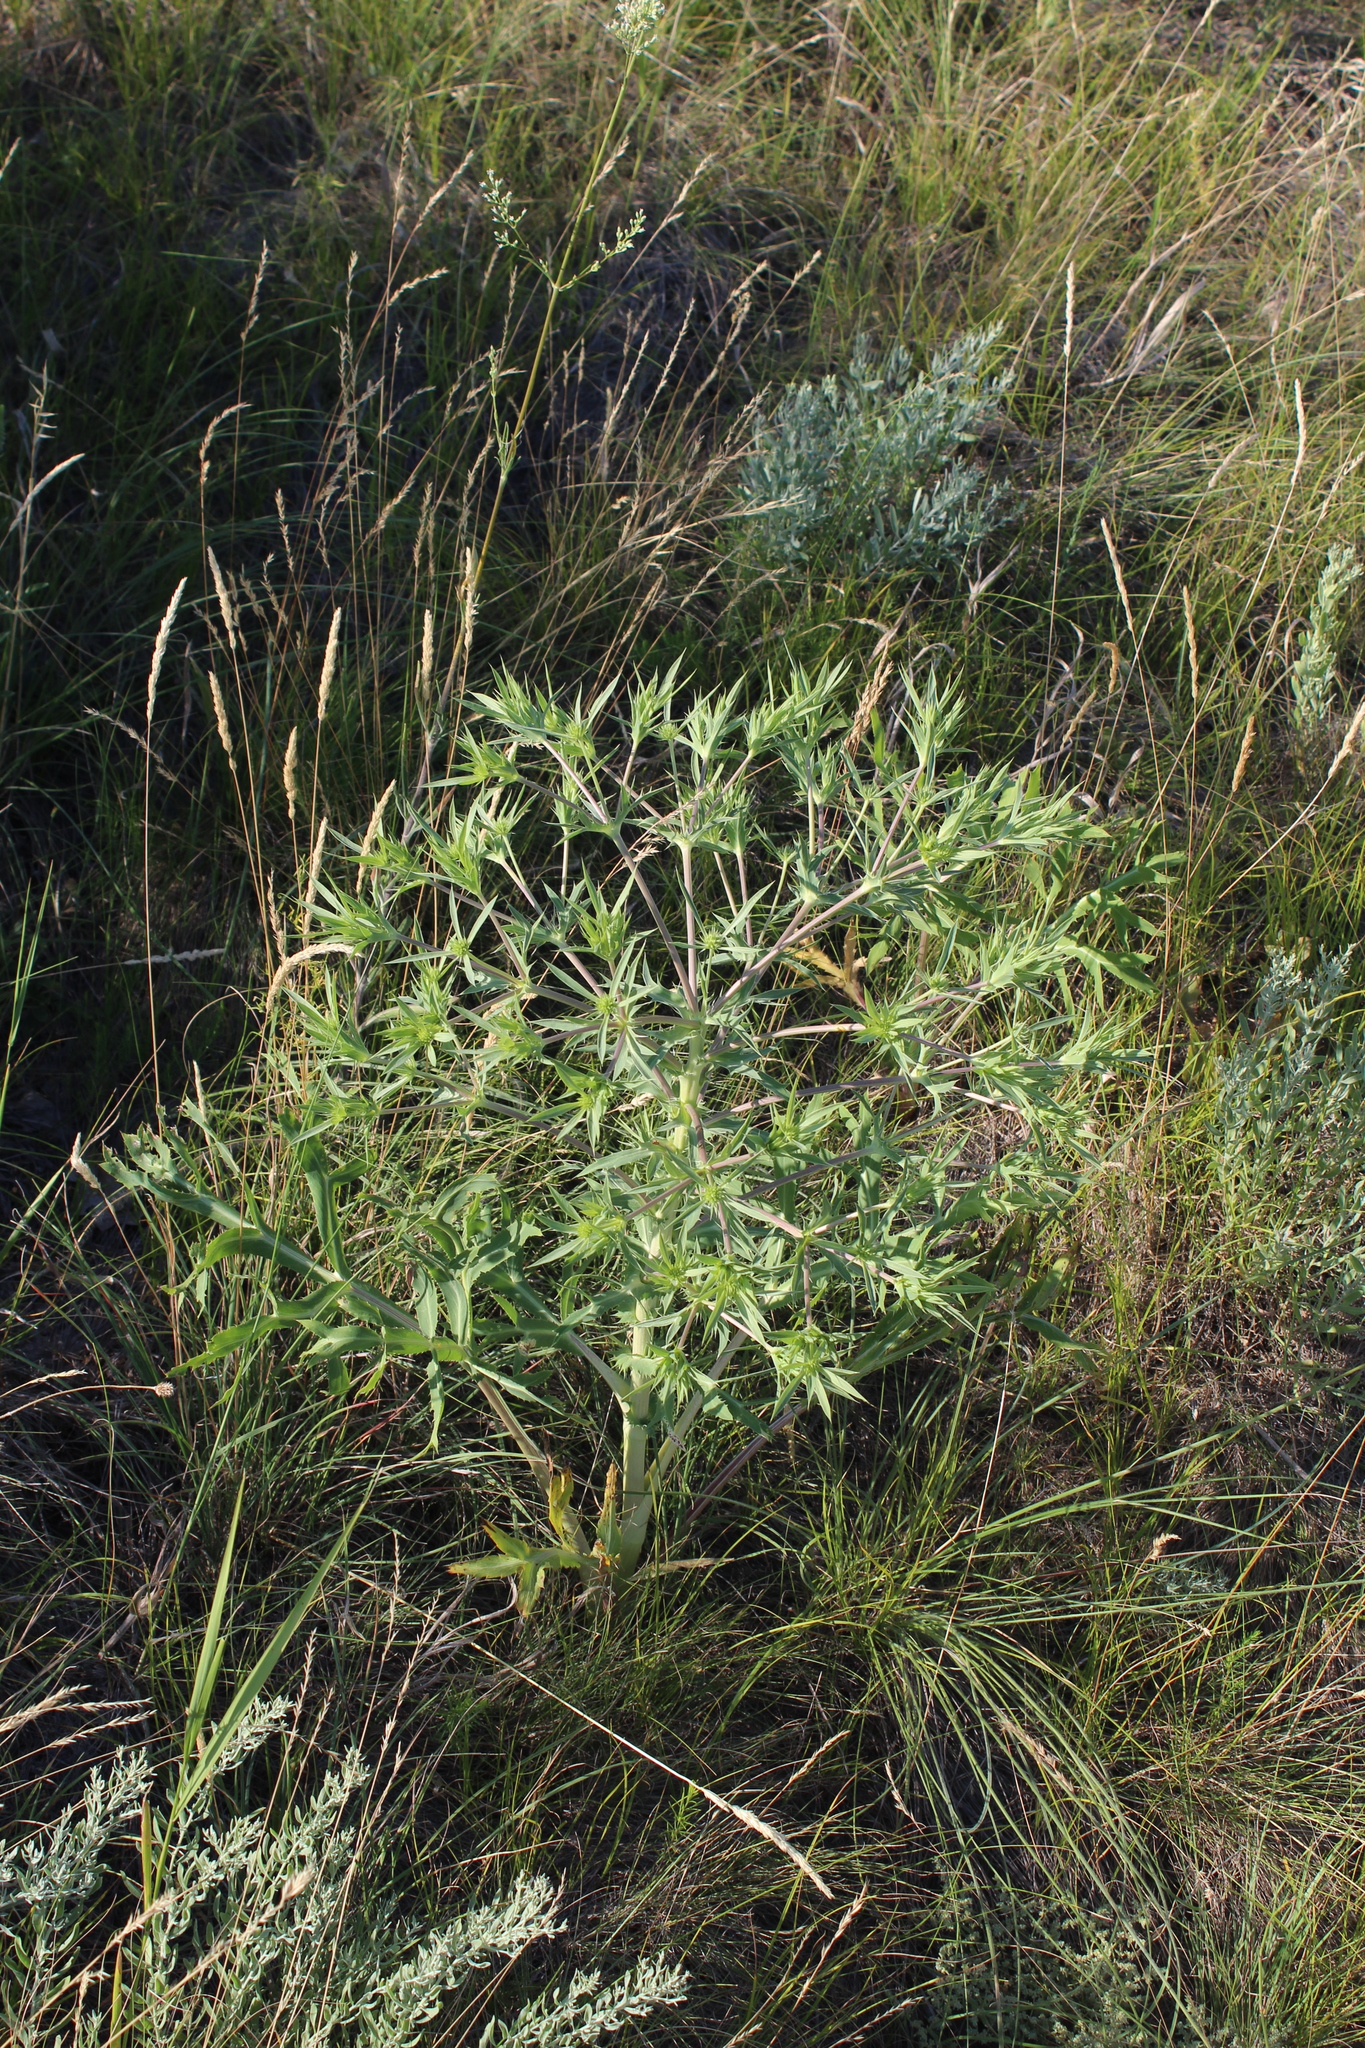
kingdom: Plantae
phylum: Tracheophyta
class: Magnoliopsida
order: Apiales
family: Apiaceae
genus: Eryngium
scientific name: Eryngium campestre
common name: Field eryngo
